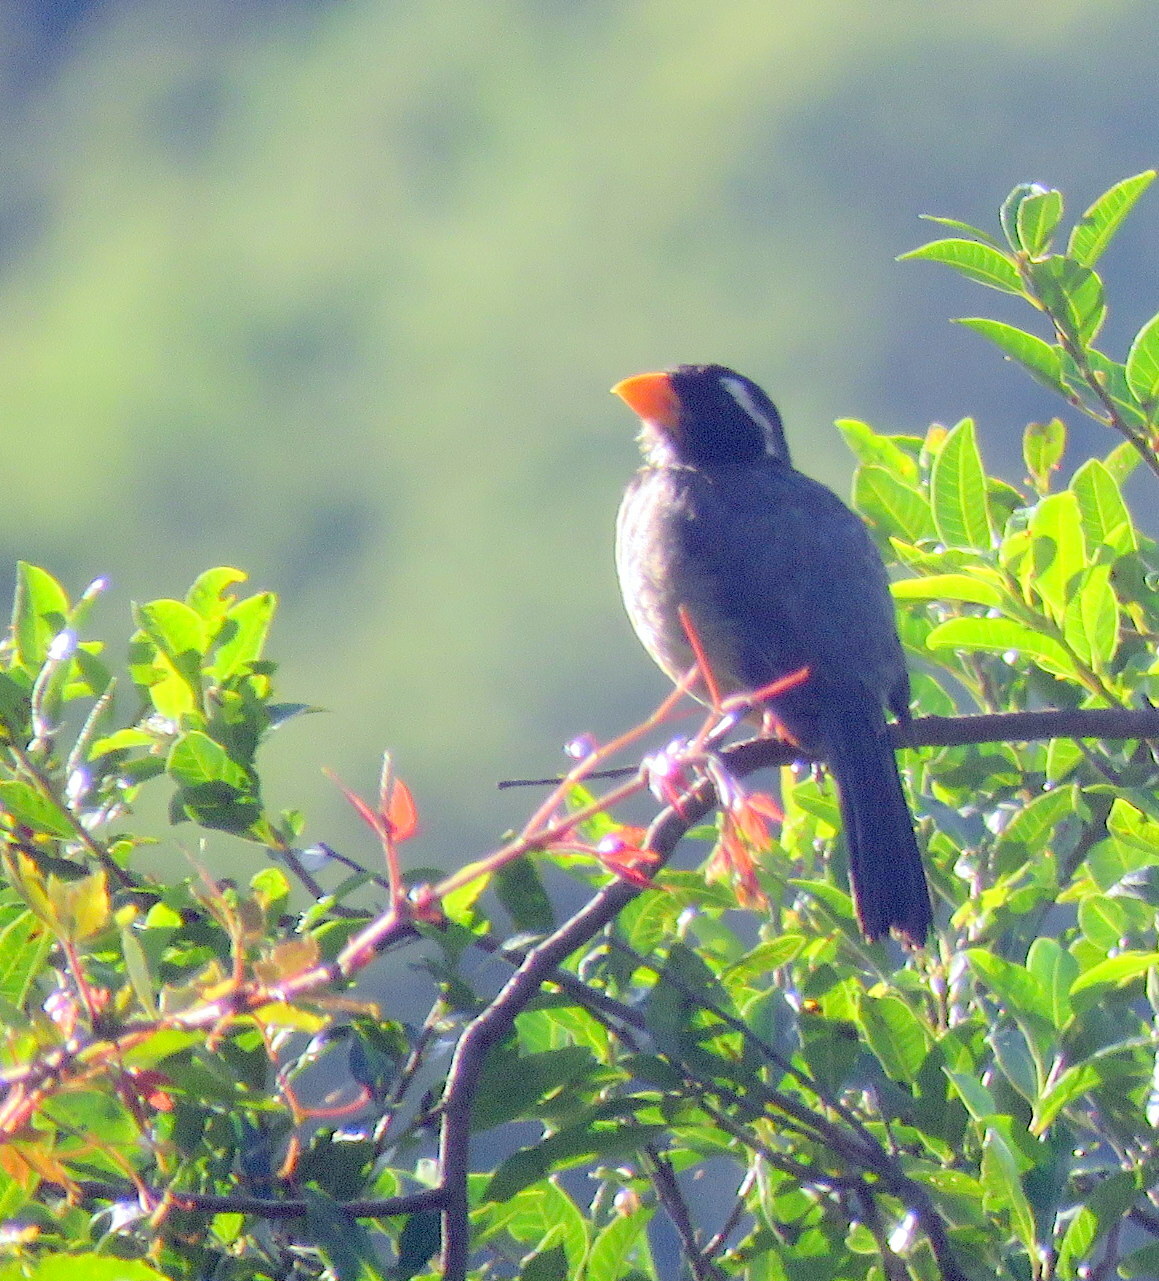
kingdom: Animalia
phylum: Chordata
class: Aves
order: Passeriformes
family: Thraupidae
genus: Saltator
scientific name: Saltator aurantiirostris
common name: Golden-billed saltator
